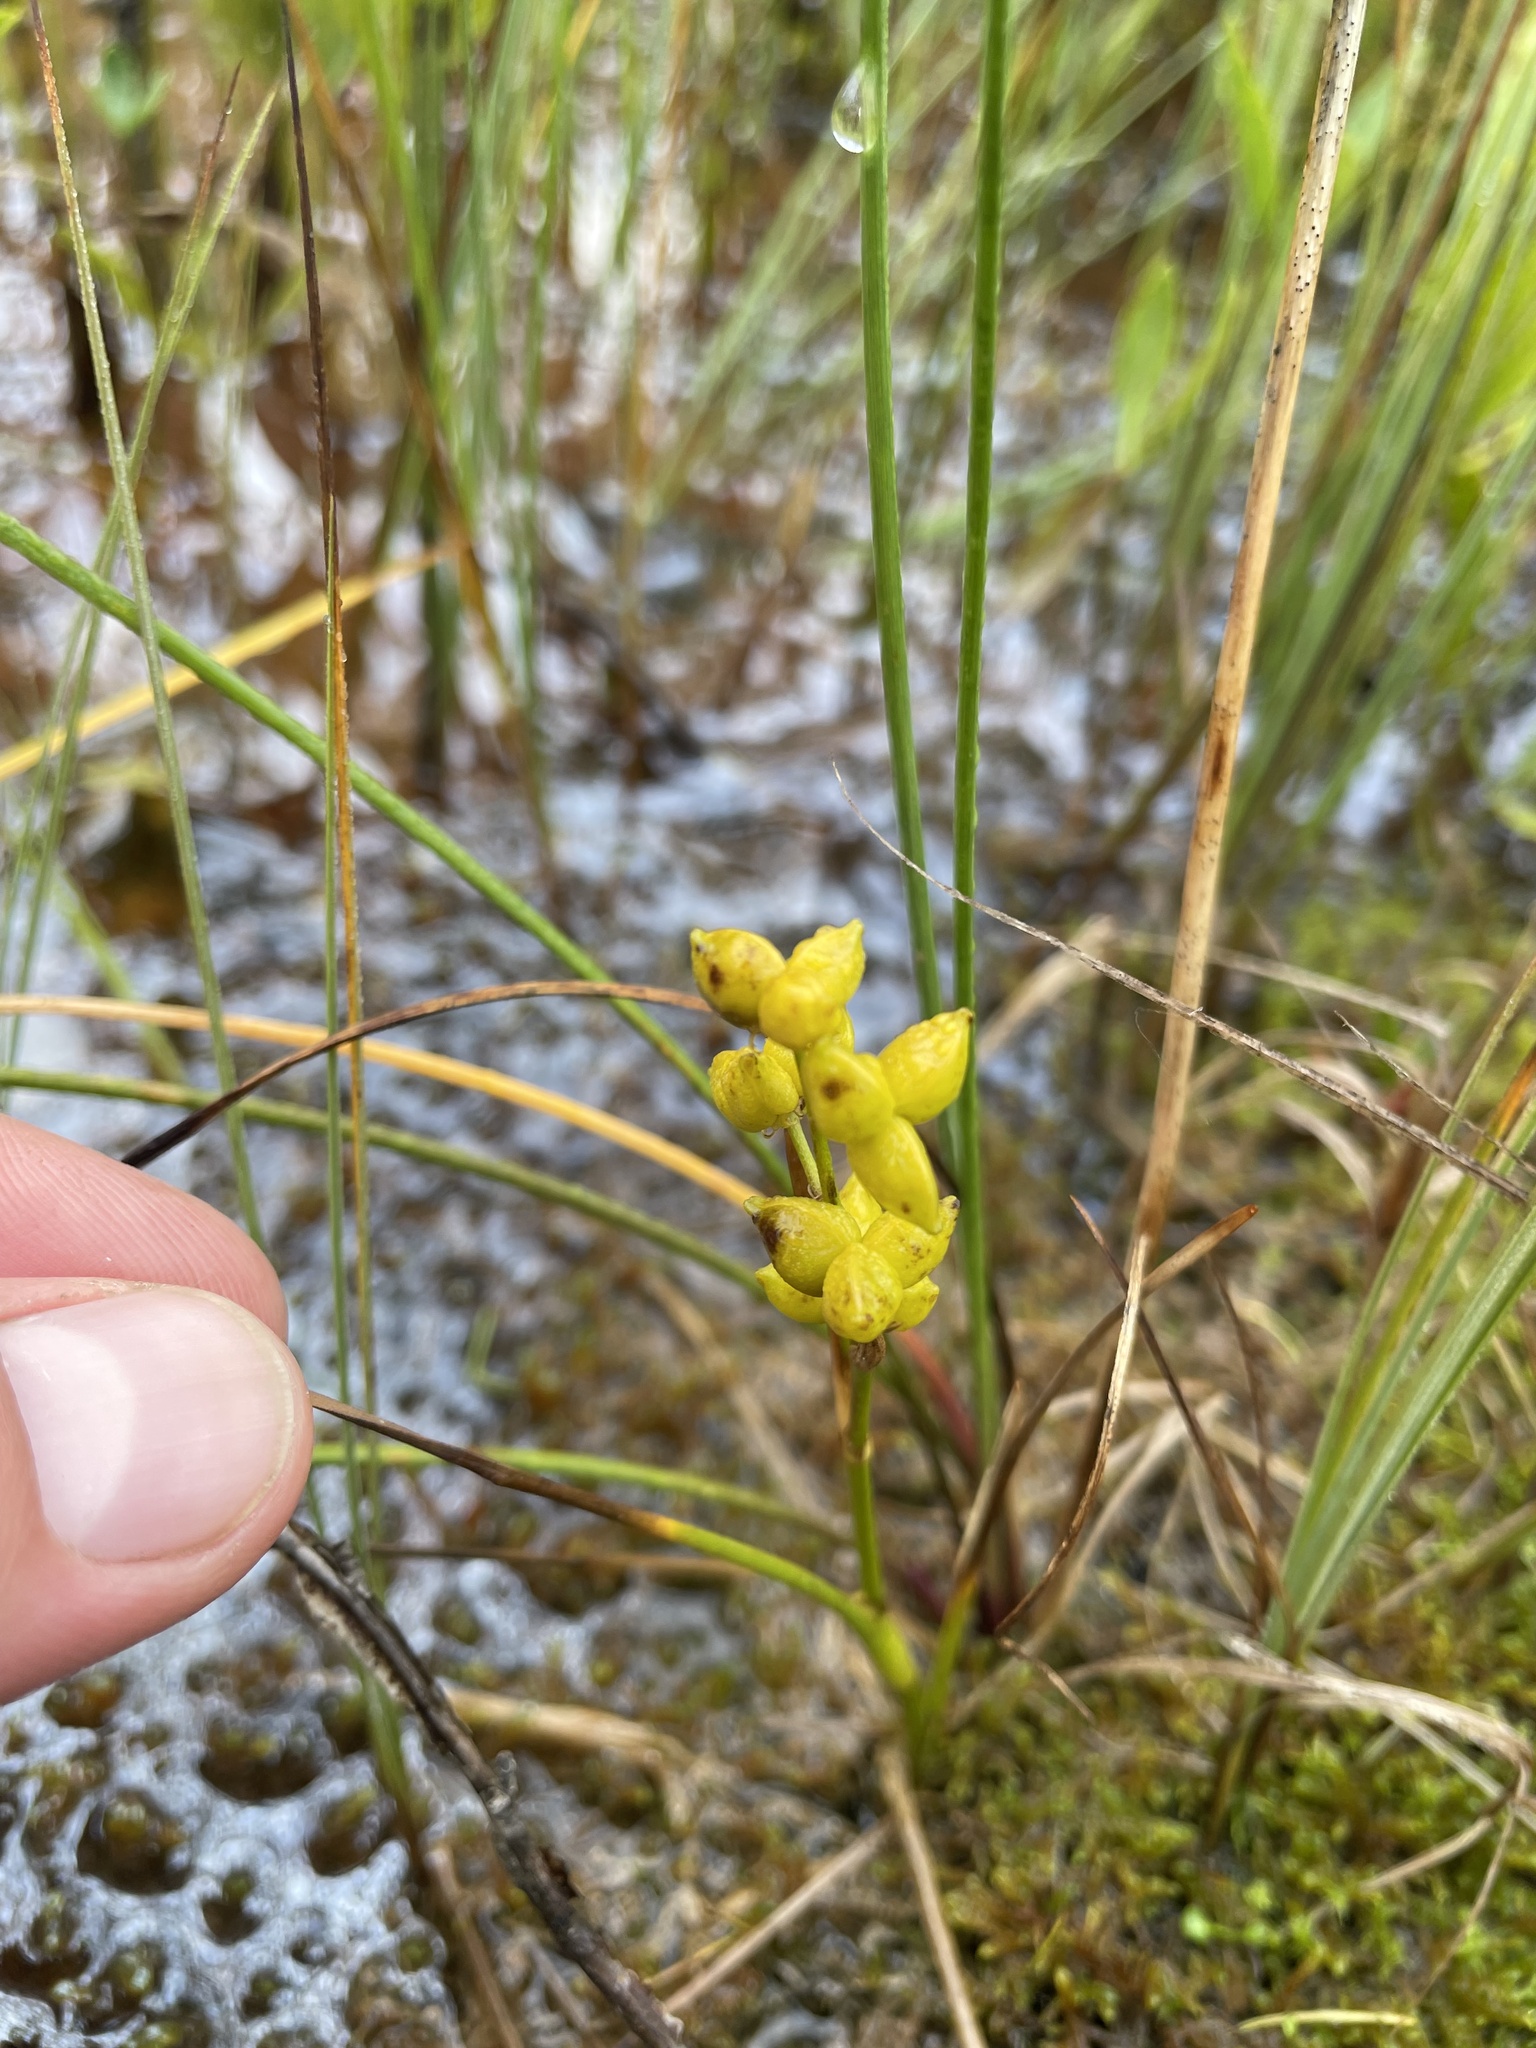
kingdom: Plantae
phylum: Tracheophyta
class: Liliopsida
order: Alismatales
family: Scheuchzeriaceae
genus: Scheuchzeria
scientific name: Scheuchzeria palustris
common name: Rannoch-rush
